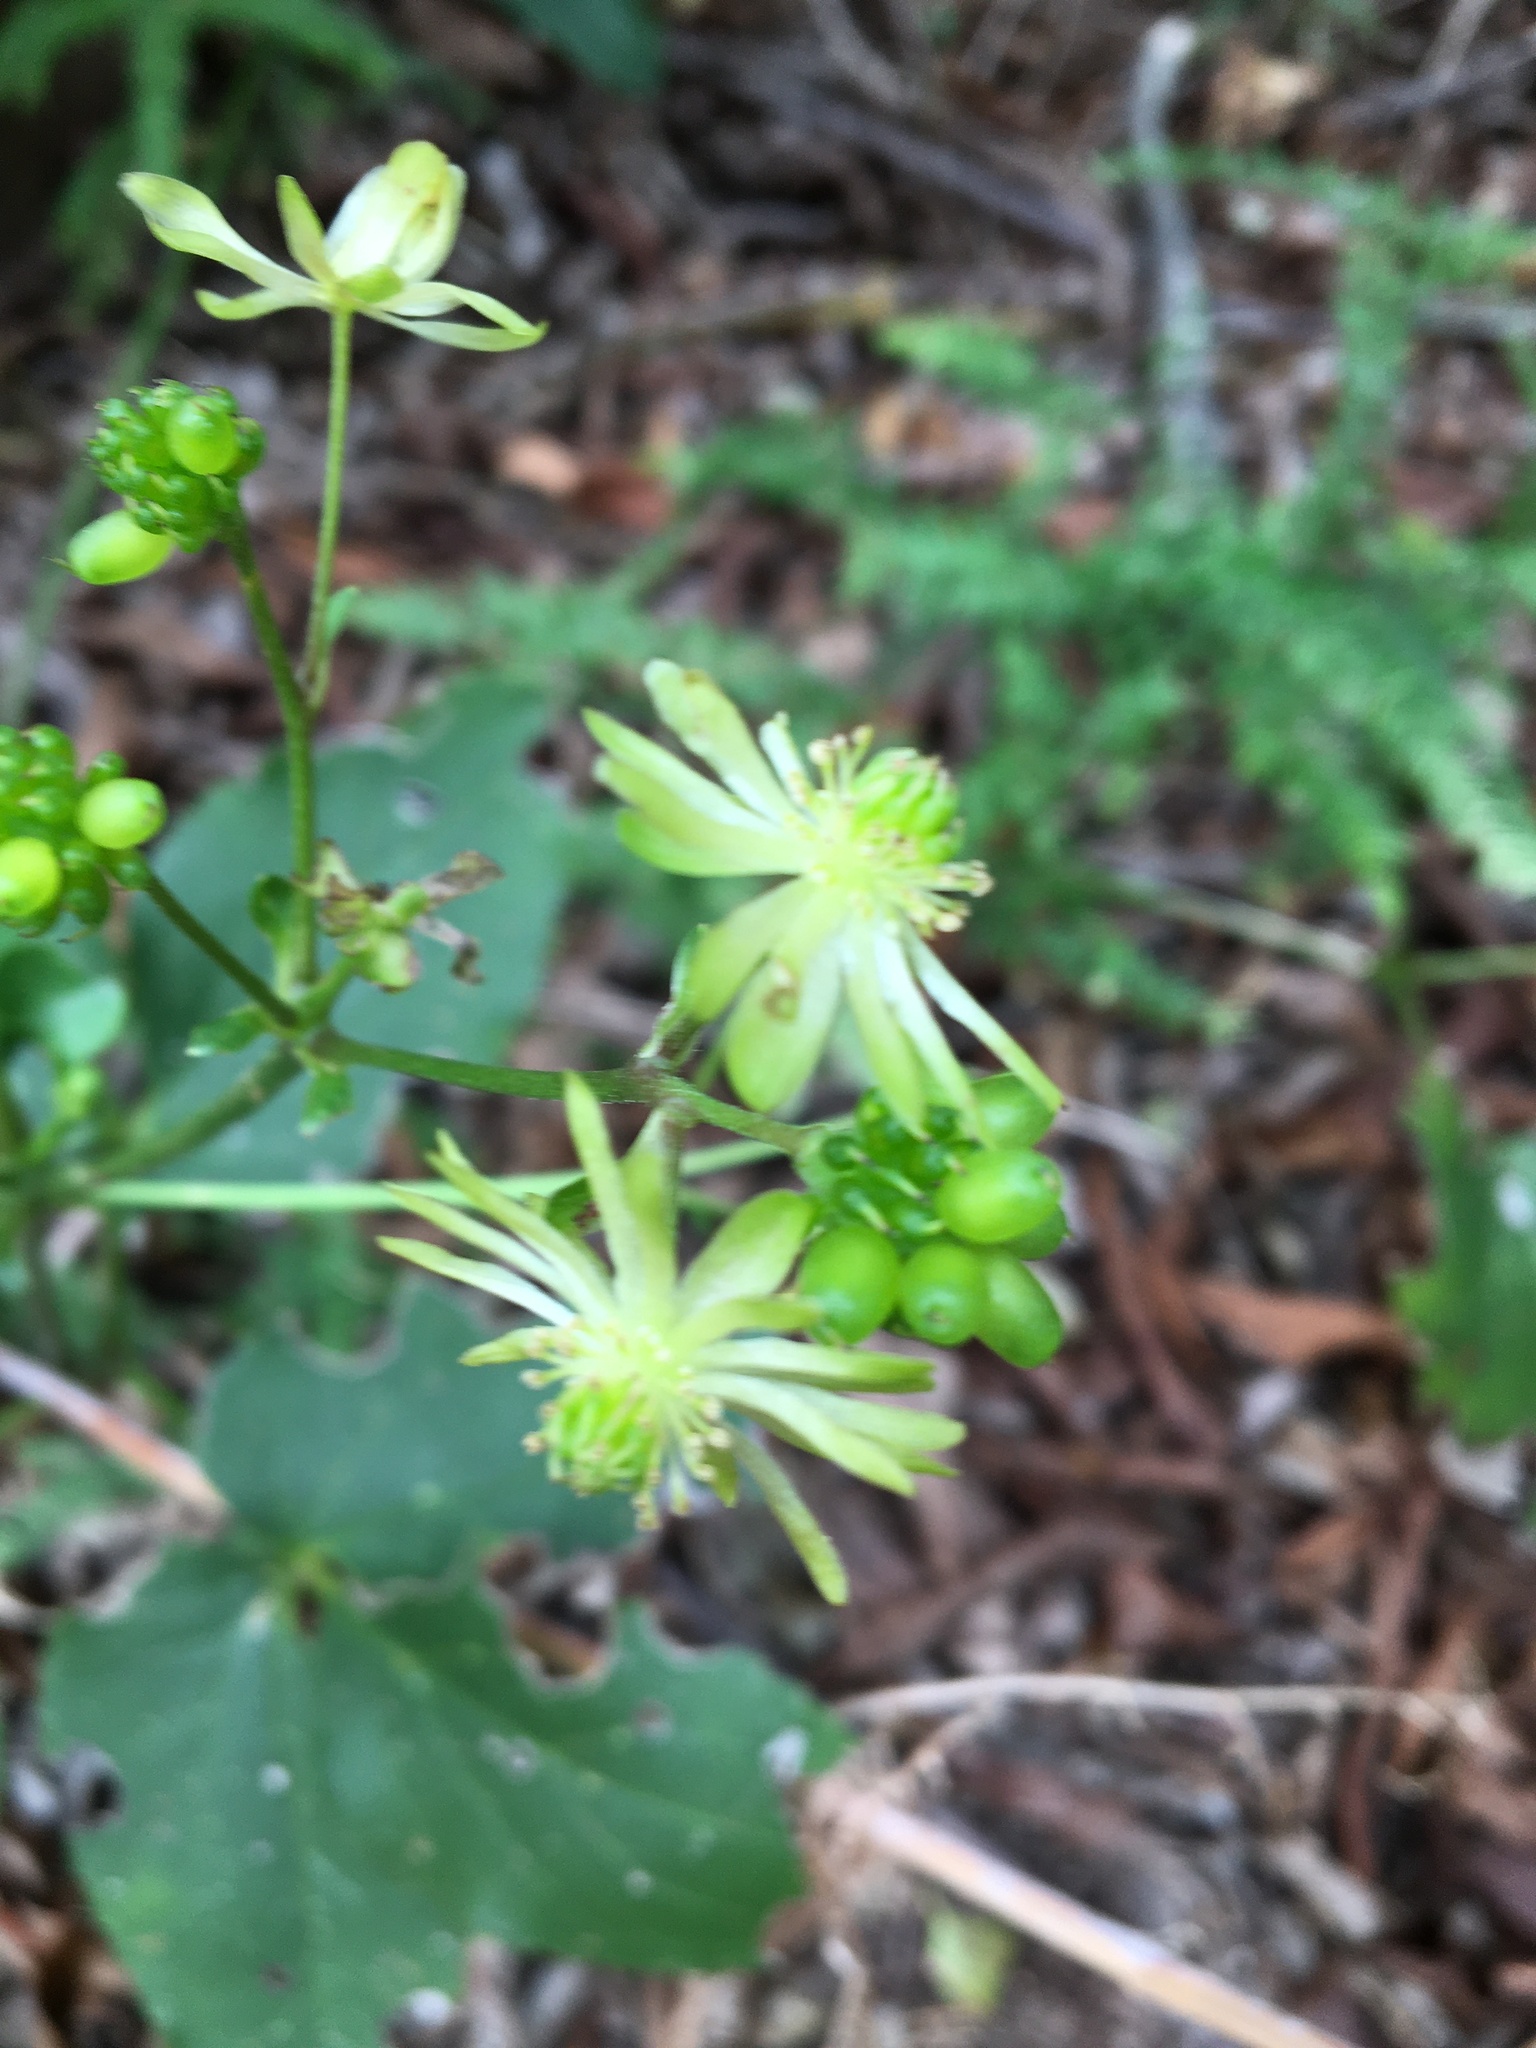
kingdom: Plantae
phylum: Tracheophyta
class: Magnoliopsida
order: Ranunculales
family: Ranunculaceae
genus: Knowltonia
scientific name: Knowltonia vesicatoria
